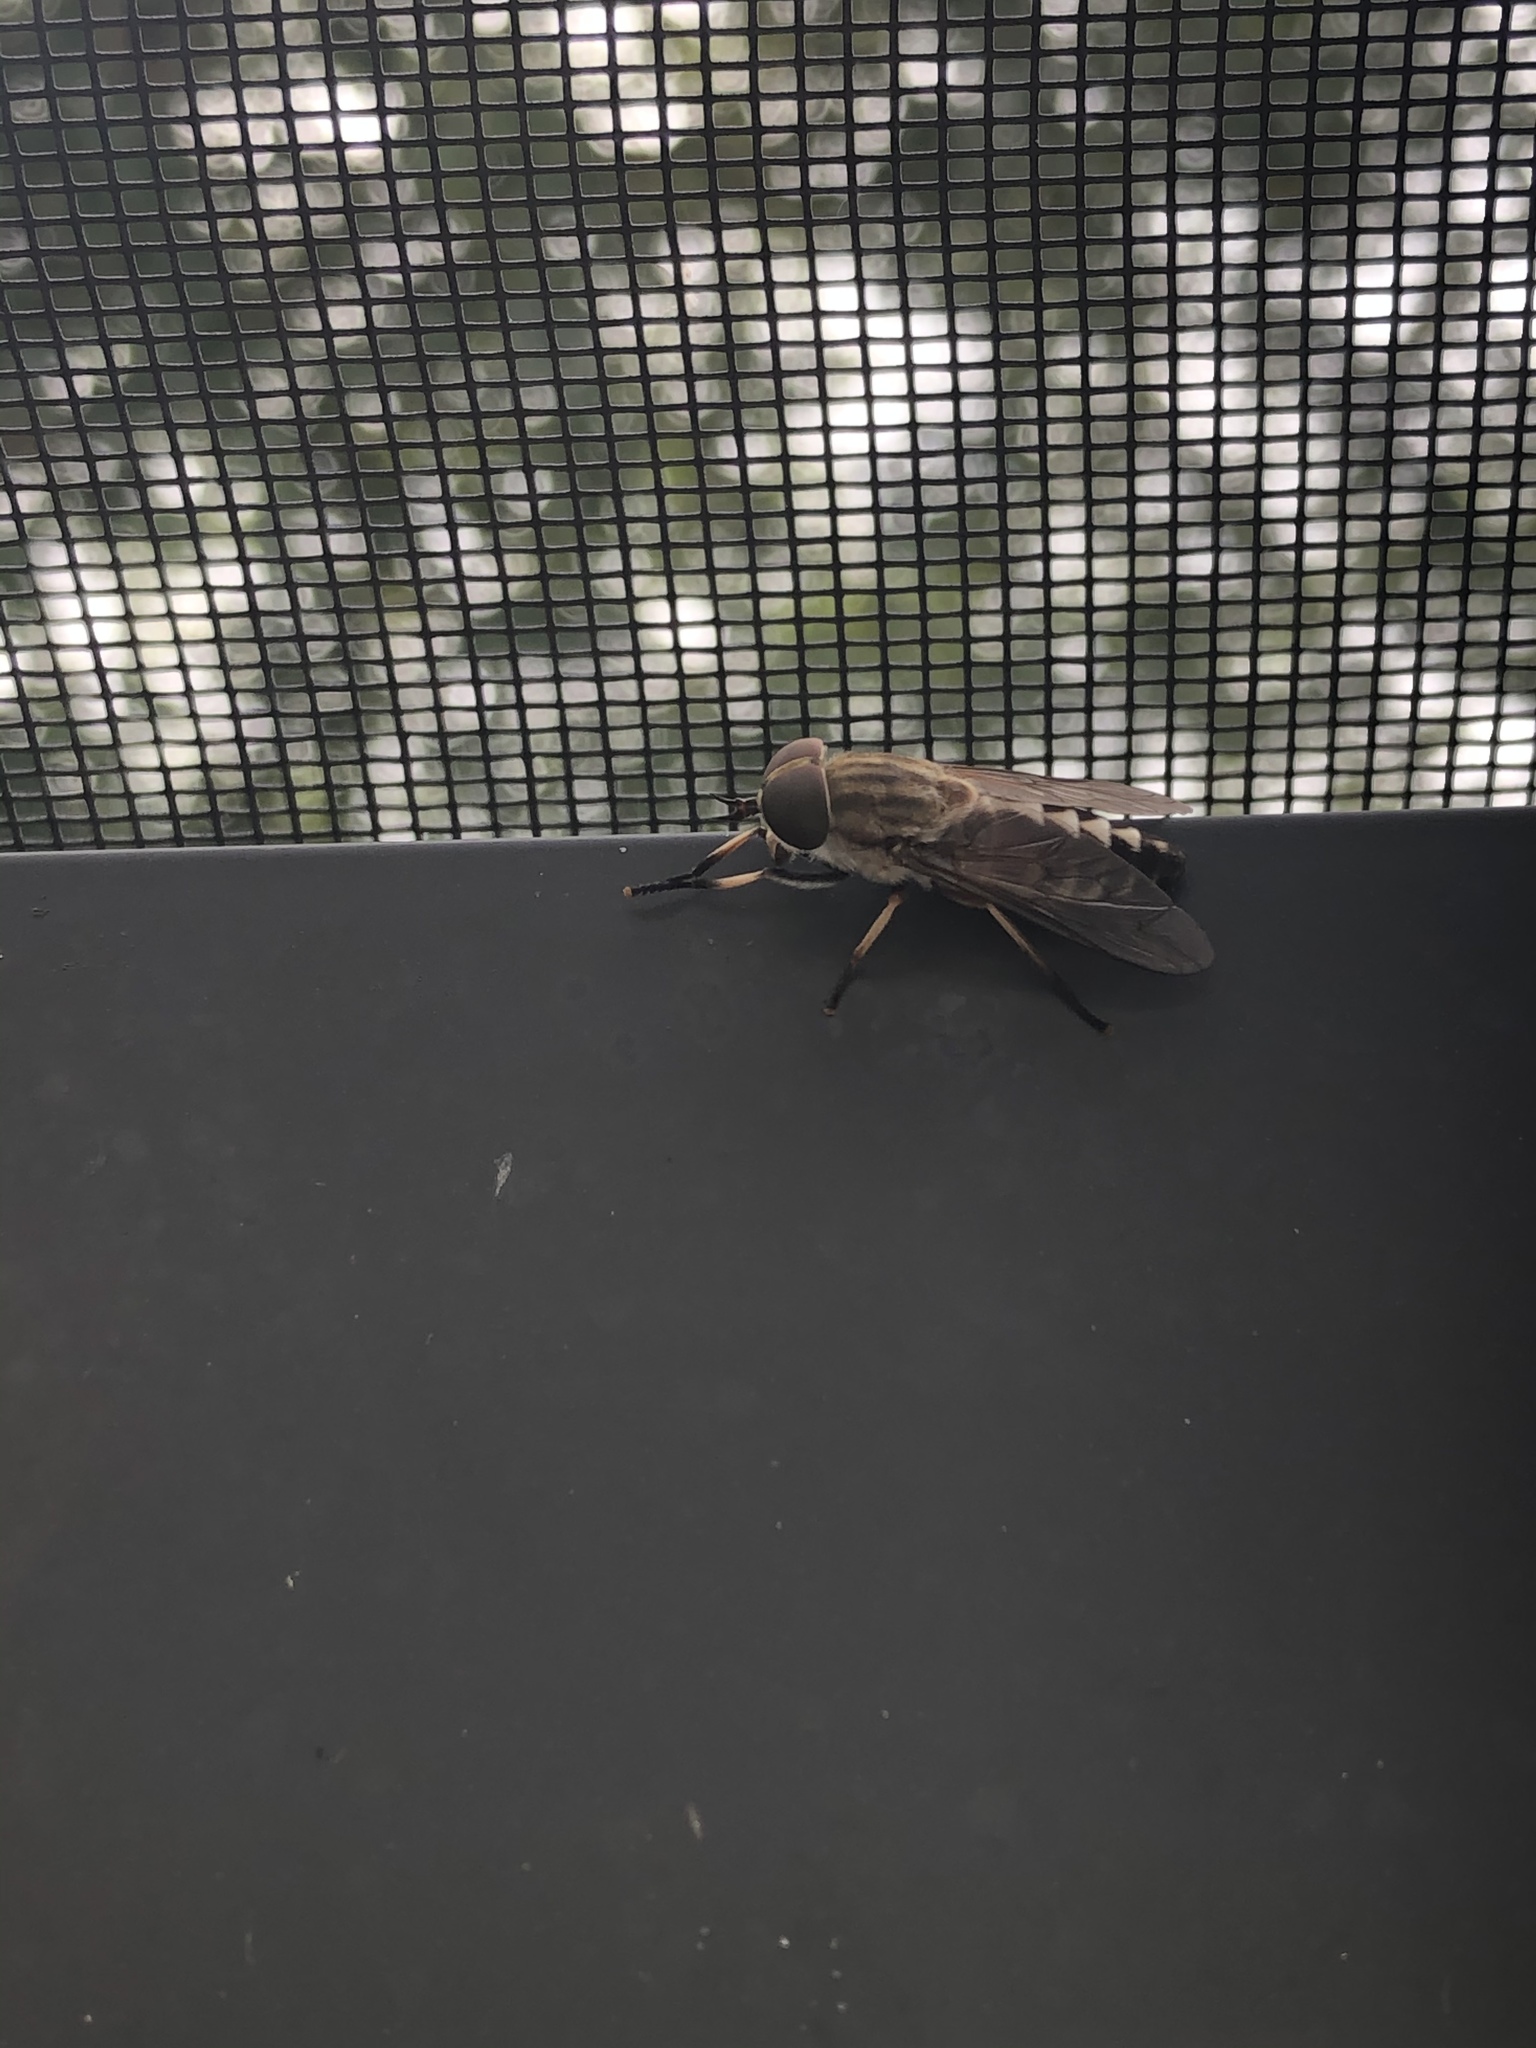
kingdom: Animalia
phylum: Arthropoda
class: Insecta
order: Diptera
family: Tabanidae
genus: Tabanus
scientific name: Tabanus petiolatus
